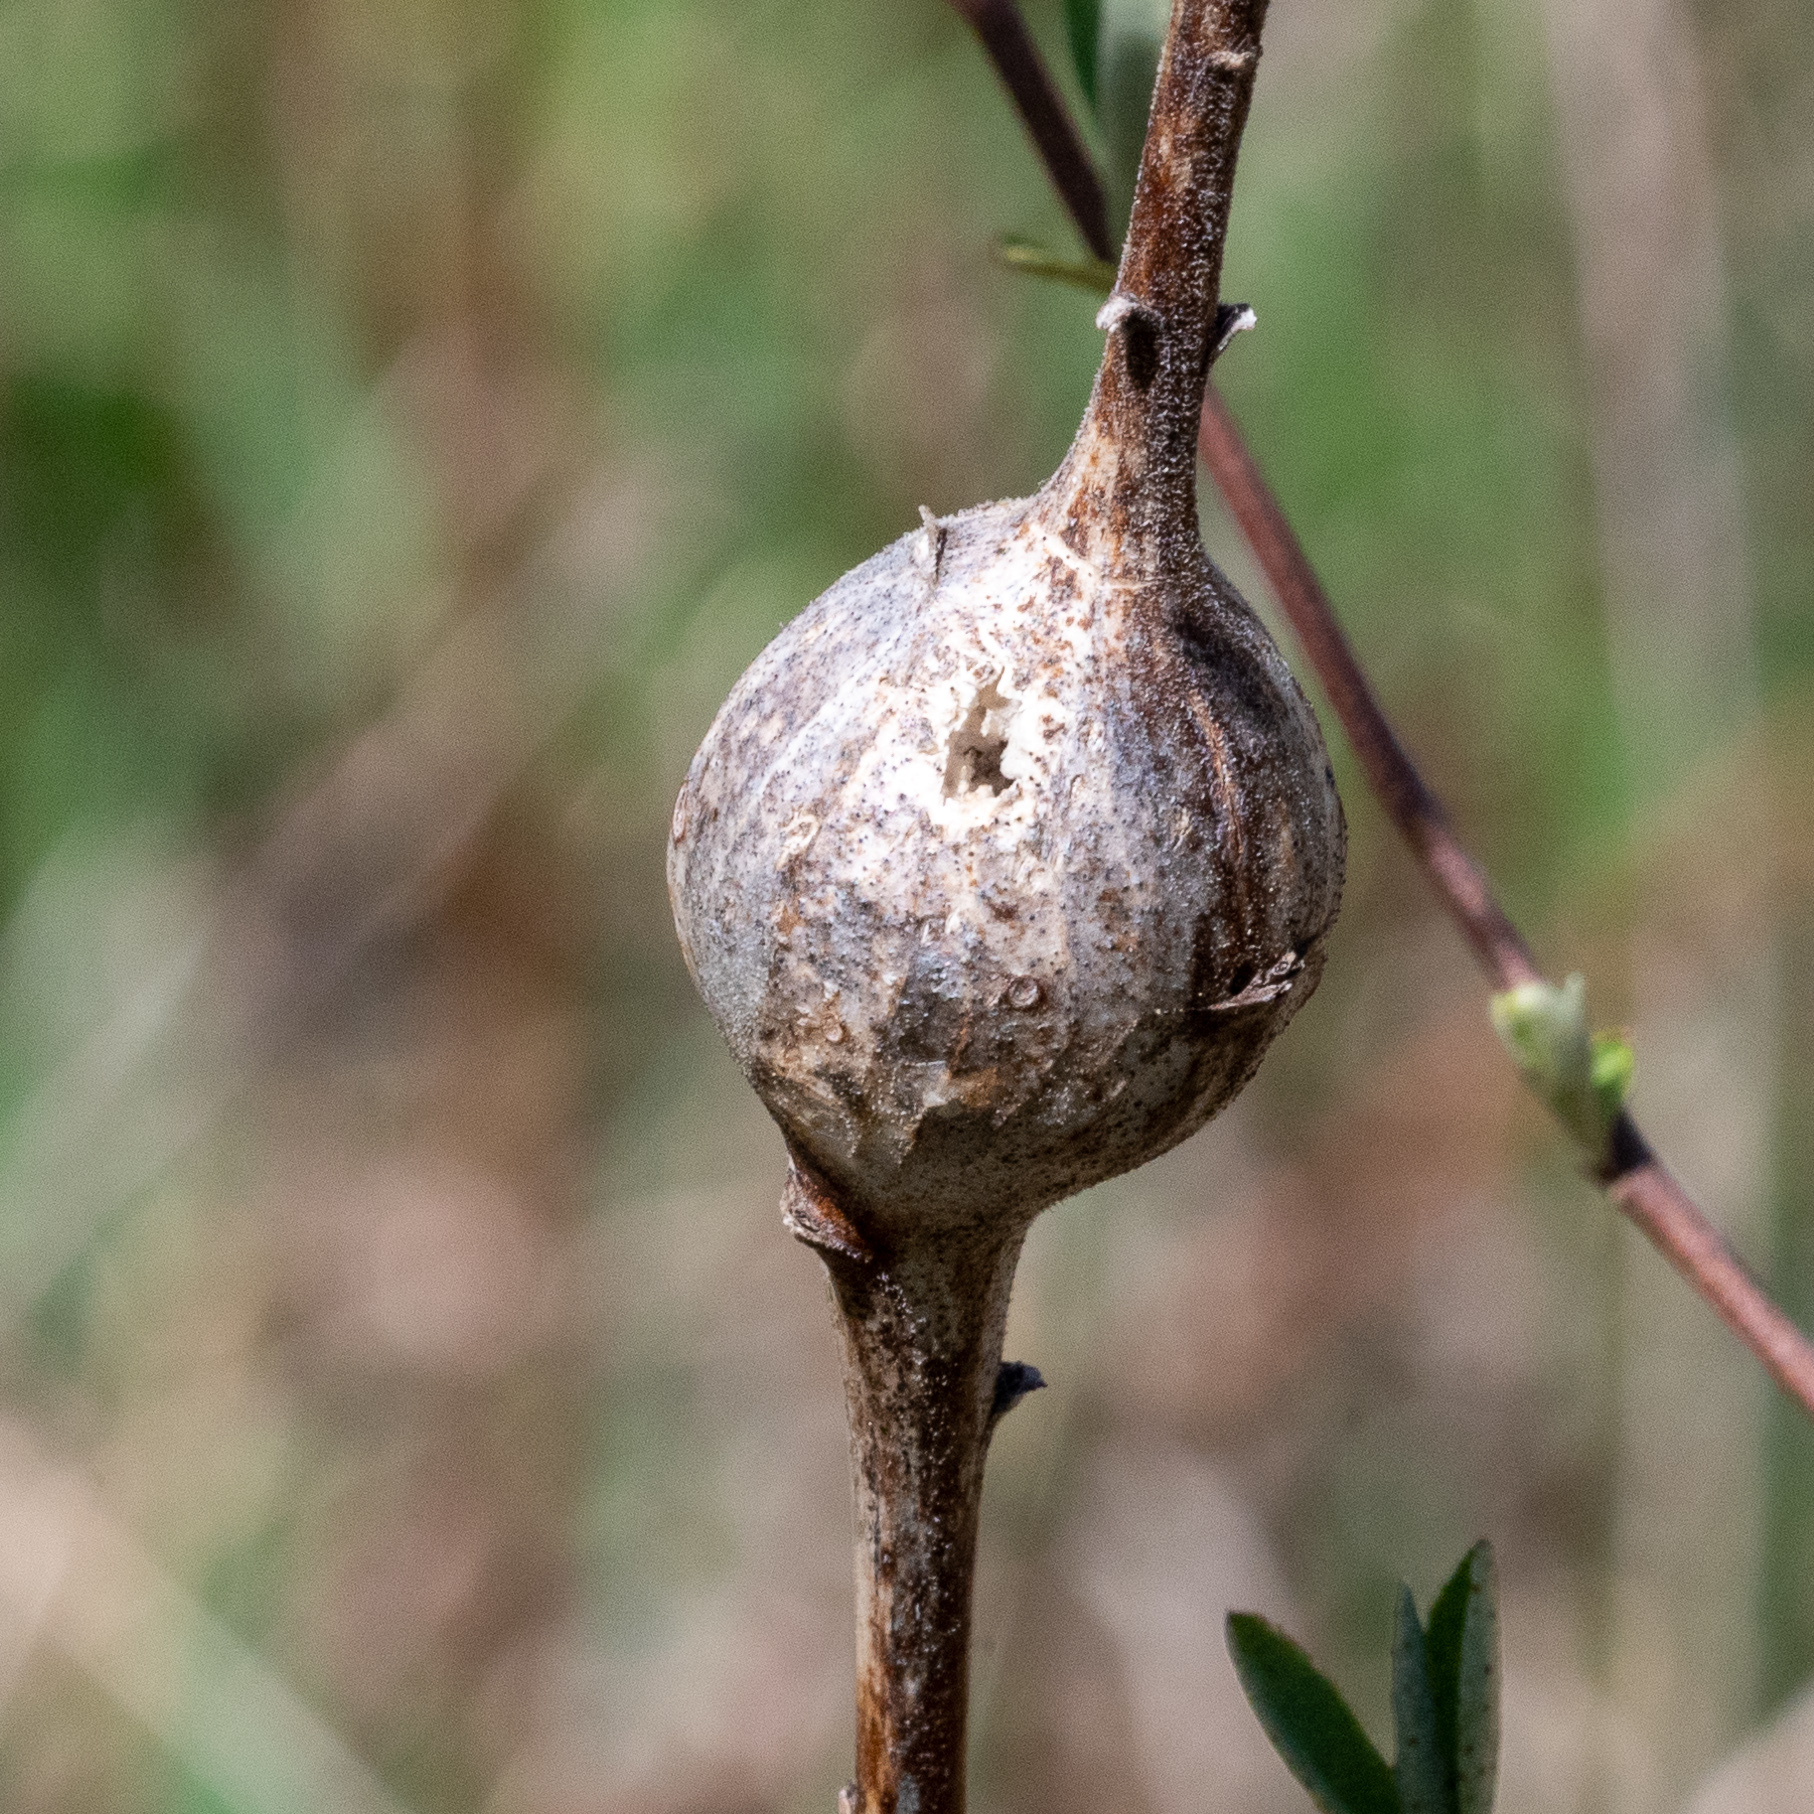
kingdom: Animalia
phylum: Arthropoda
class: Insecta
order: Diptera
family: Tephritidae
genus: Eurosta
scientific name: Eurosta solidaginis
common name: Goldenrod gall fly
